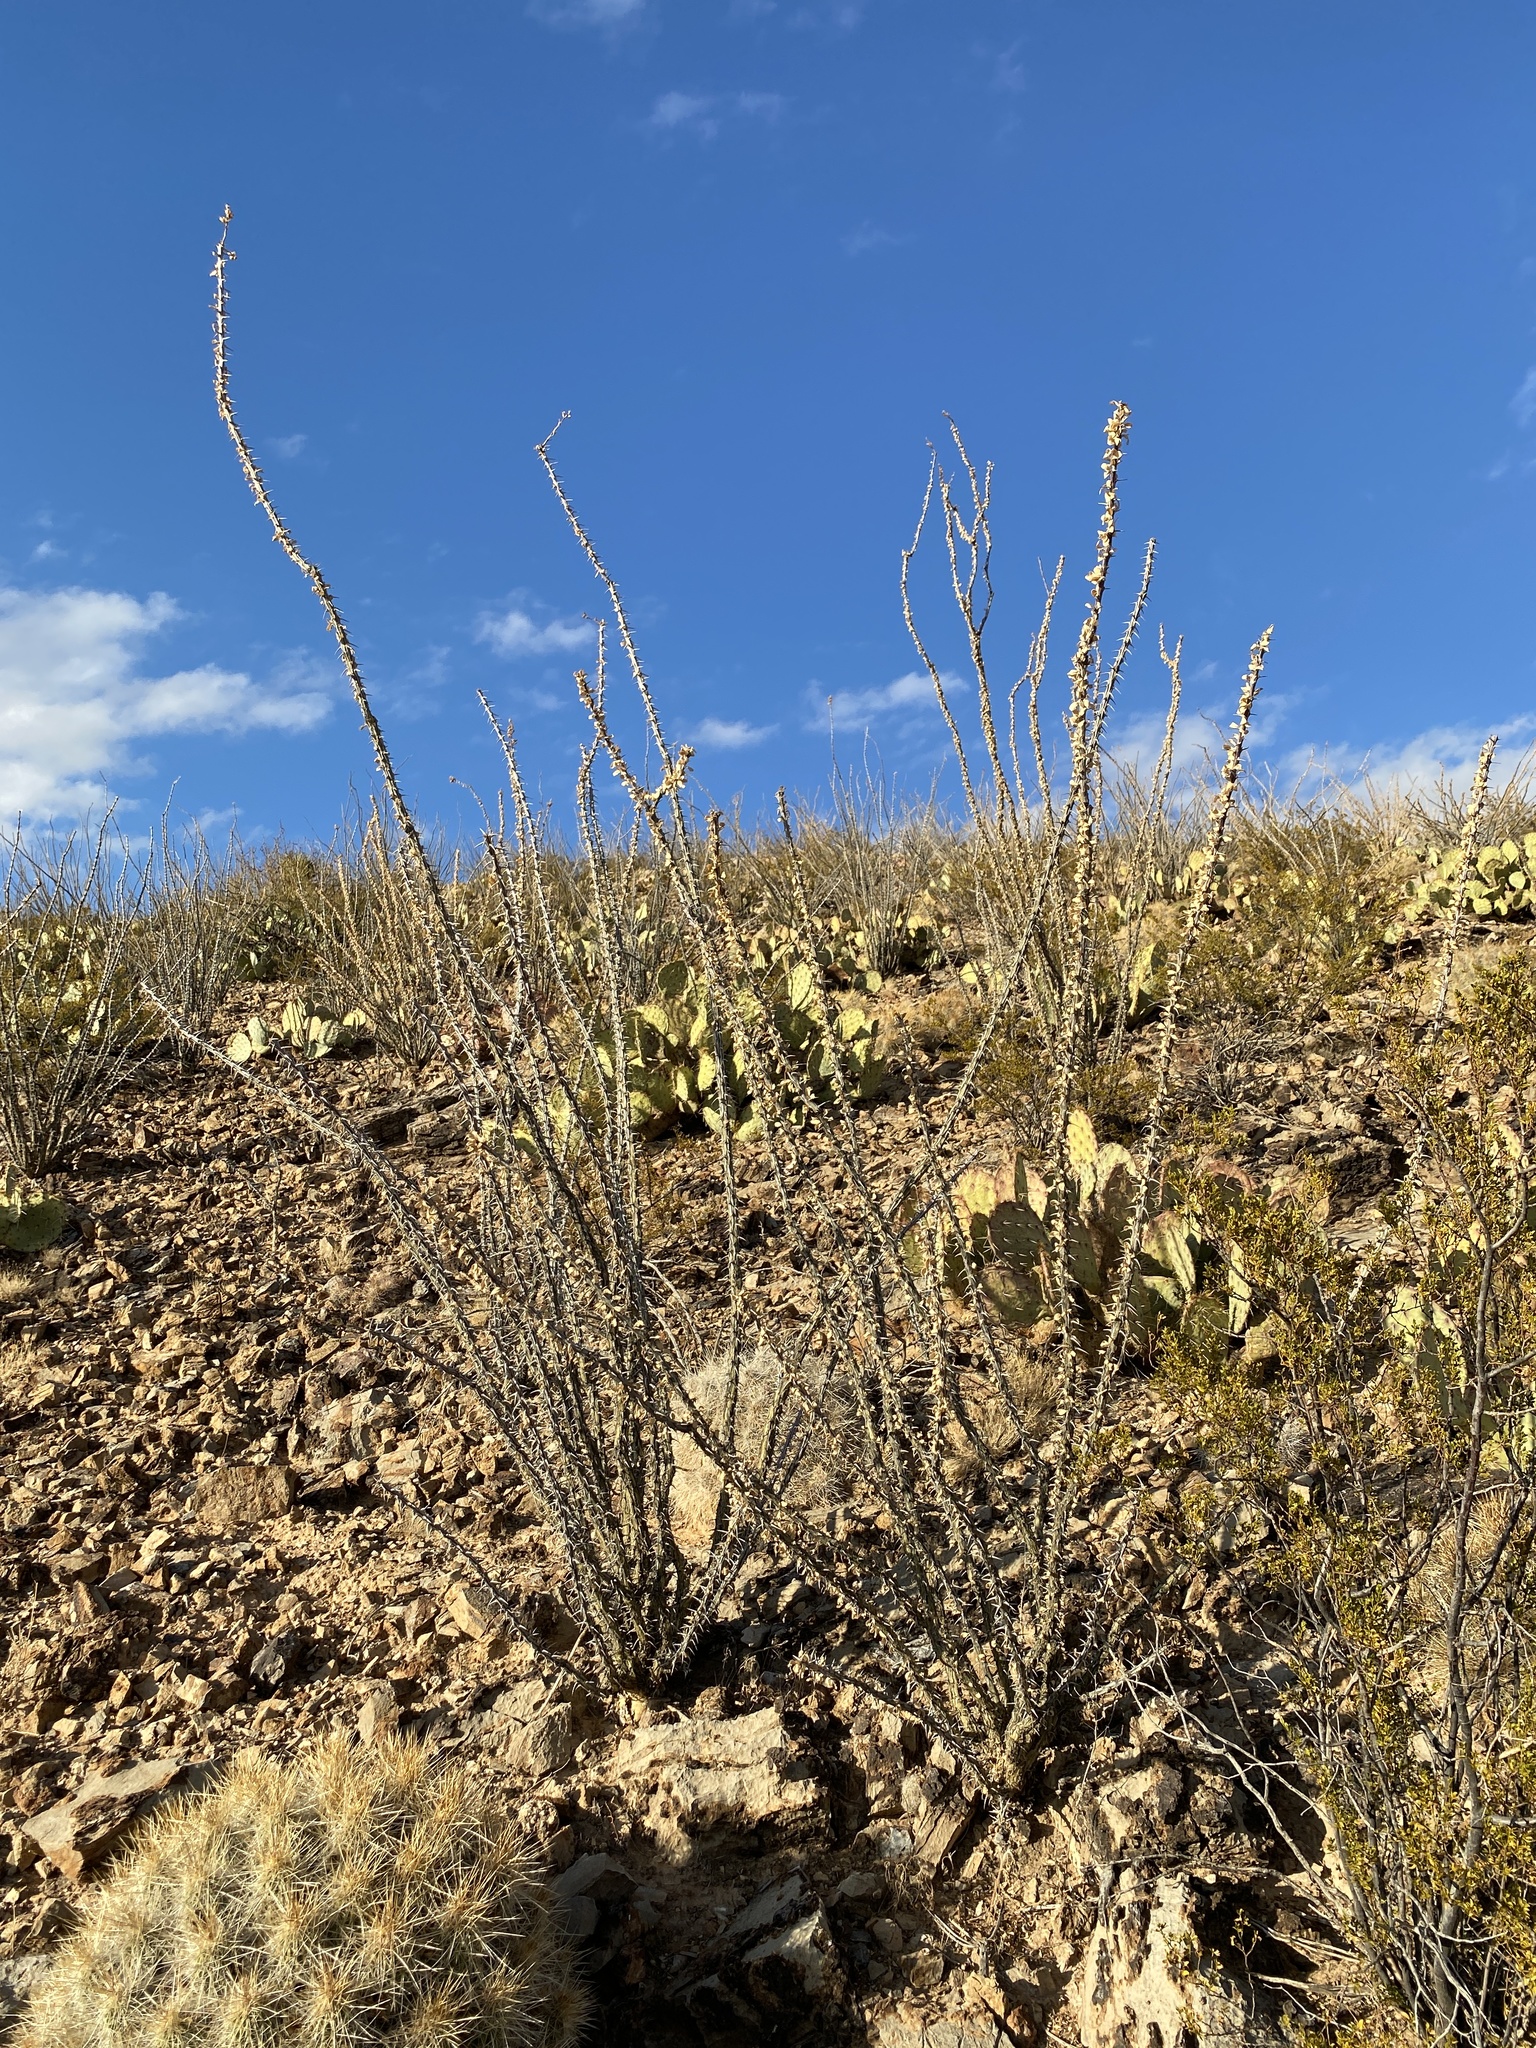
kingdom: Plantae
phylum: Tracheophyta
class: Magnoliopsida
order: Ericales
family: Fouquieriaceae
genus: Fouquieria
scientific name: Fouquieria splendens
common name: Vine-cactus
